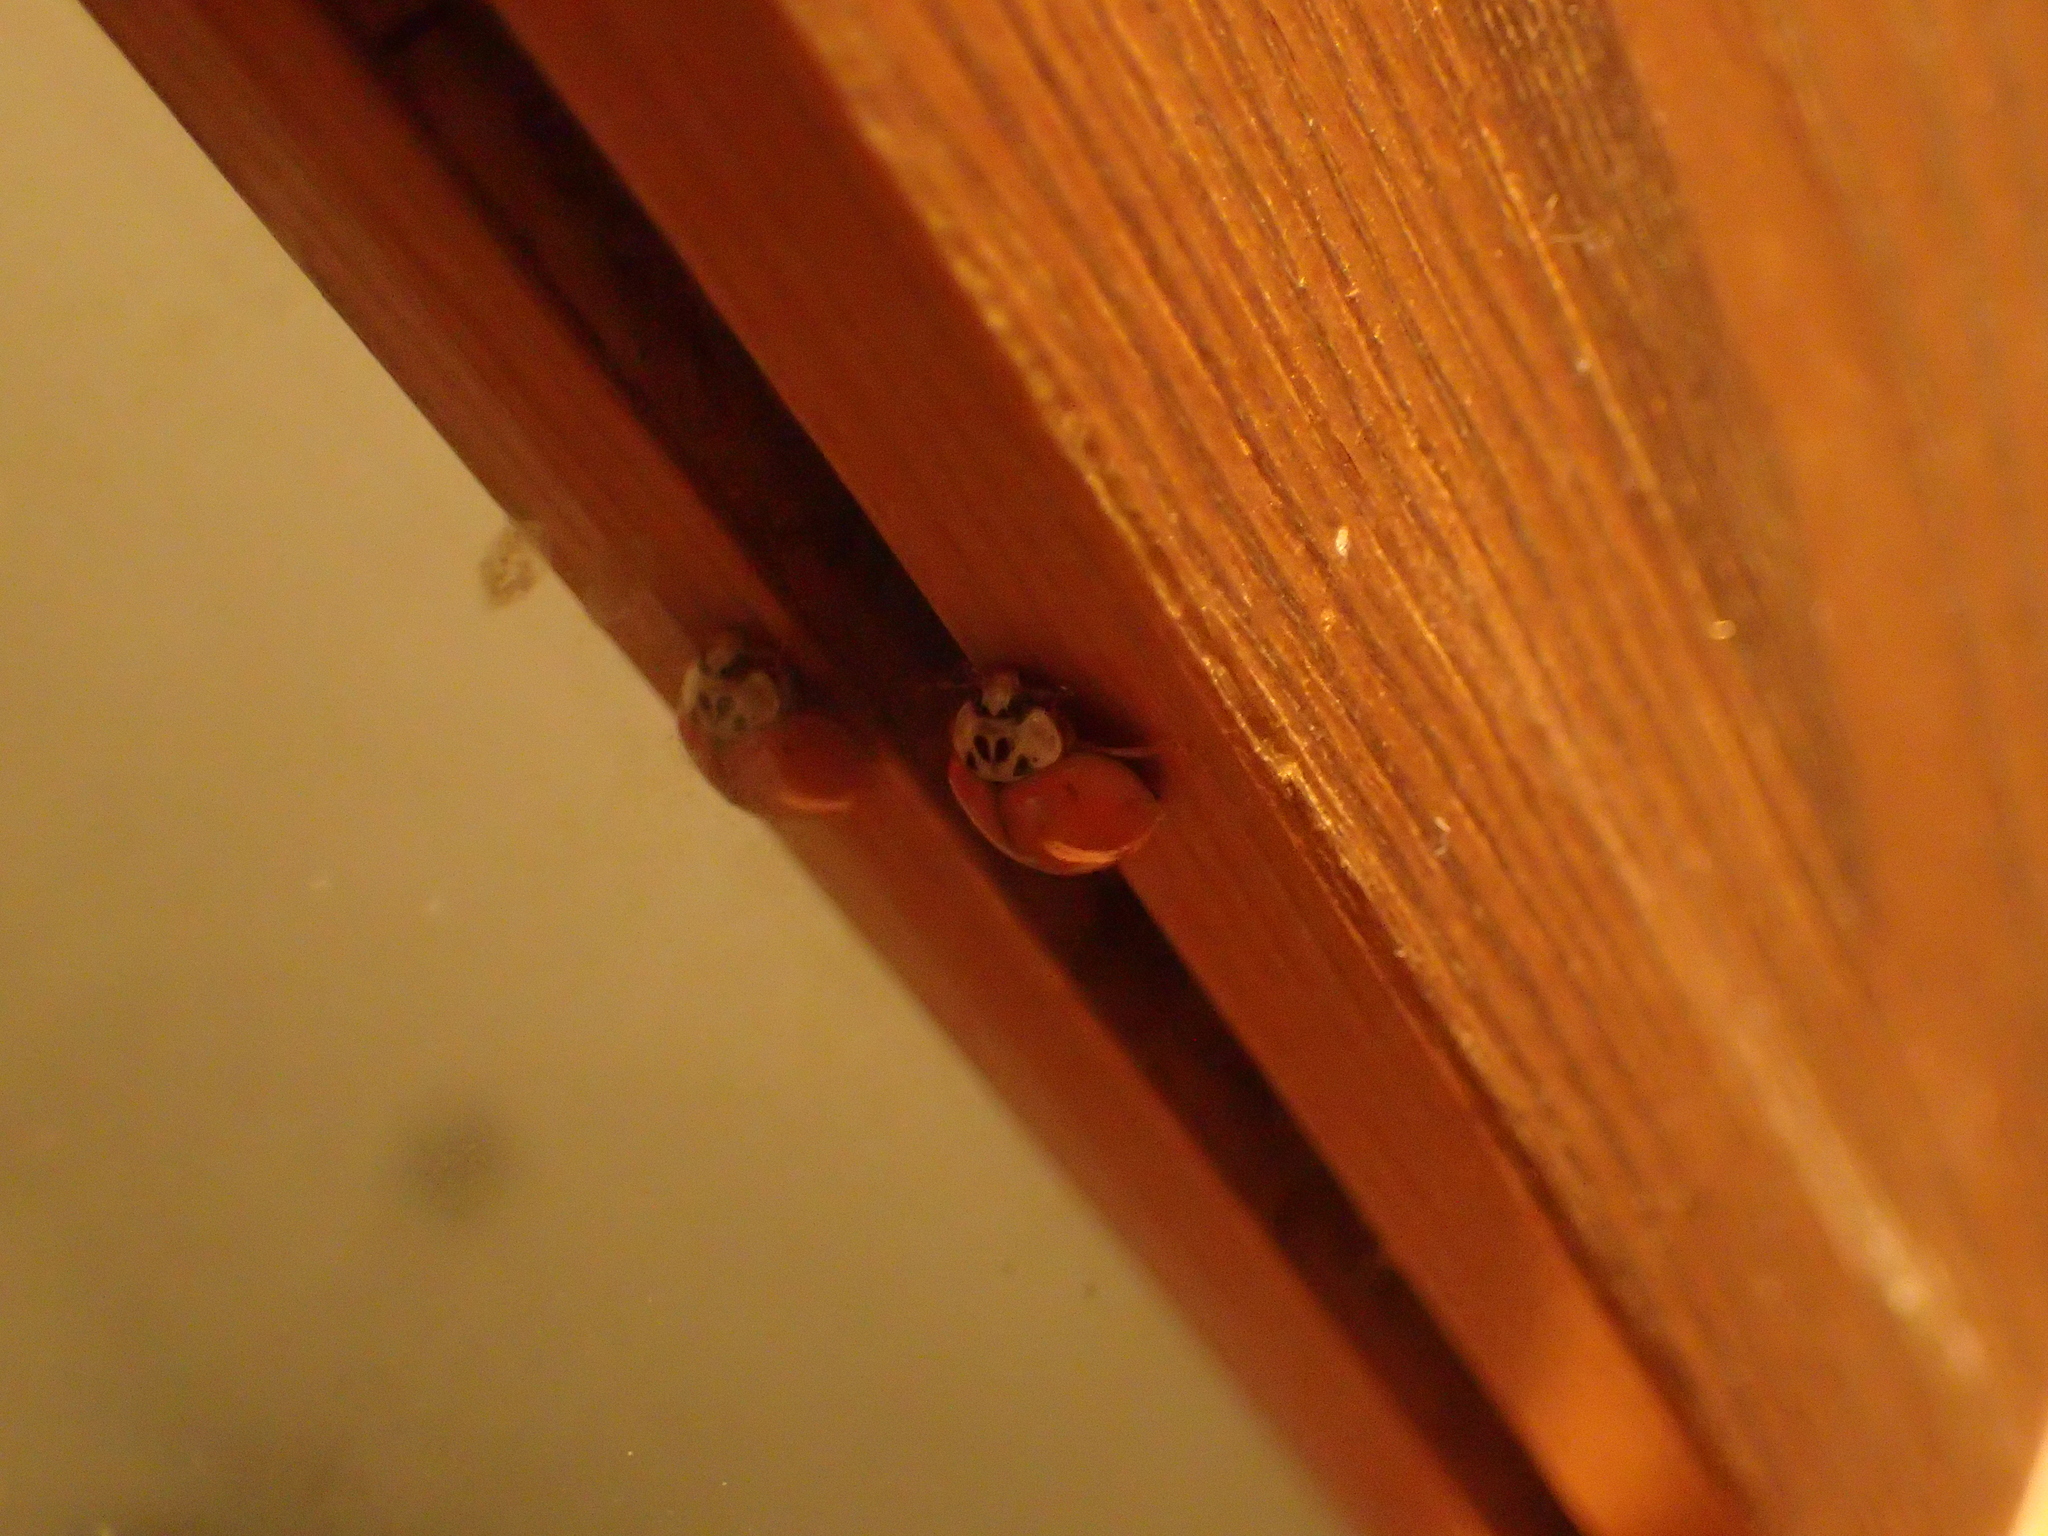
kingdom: Animalia
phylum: Arthropoda
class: Insecta
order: Coleoptera
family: Coccinellidae
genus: Harmonia
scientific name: Harmonia axyridis
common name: Harlequin ladybird
